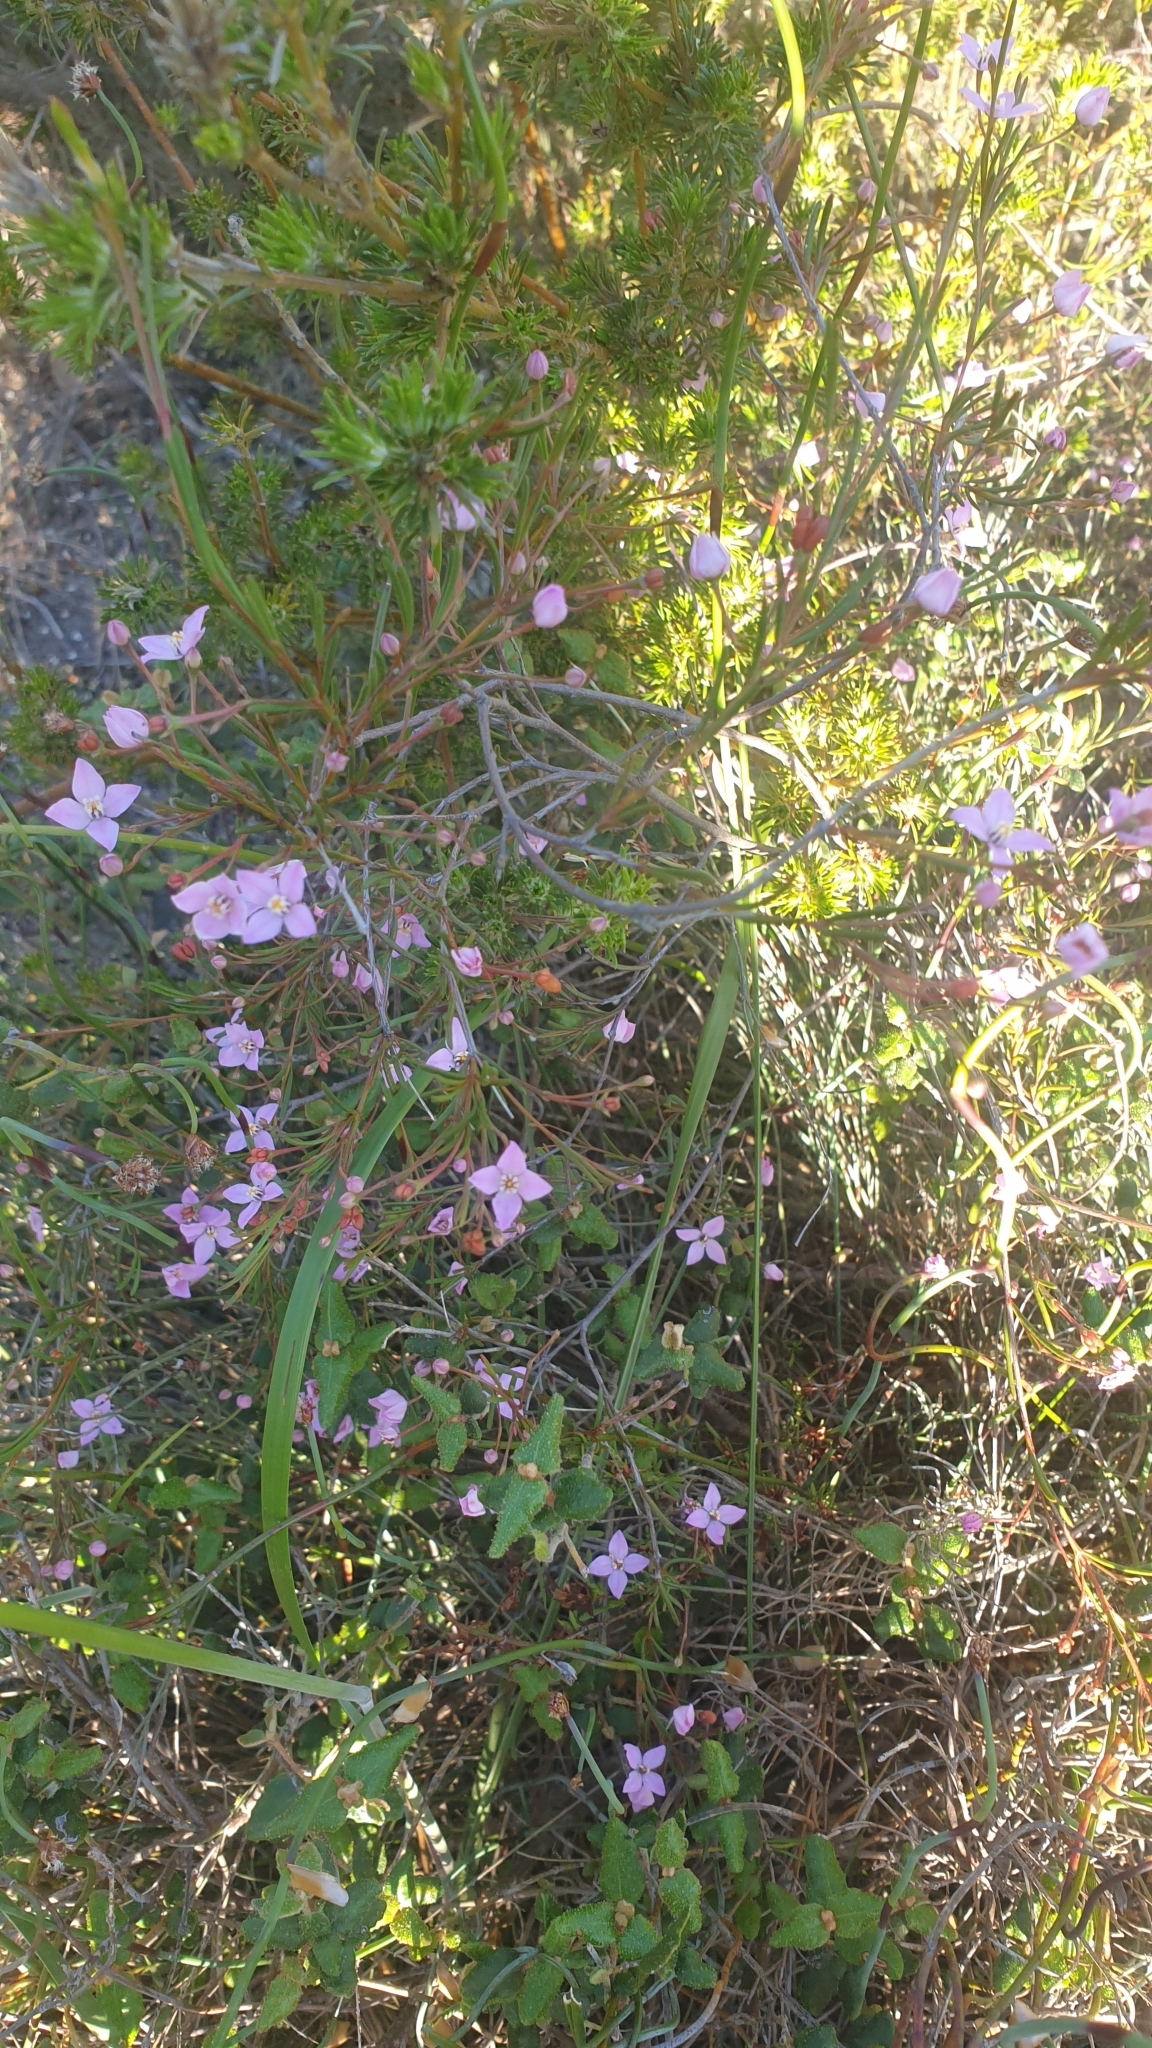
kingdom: Plantae
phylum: Tracheophyta
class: Magnoliopsida
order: Sapindales
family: Rutaceae
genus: Boronia
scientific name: Boronia filifolia
